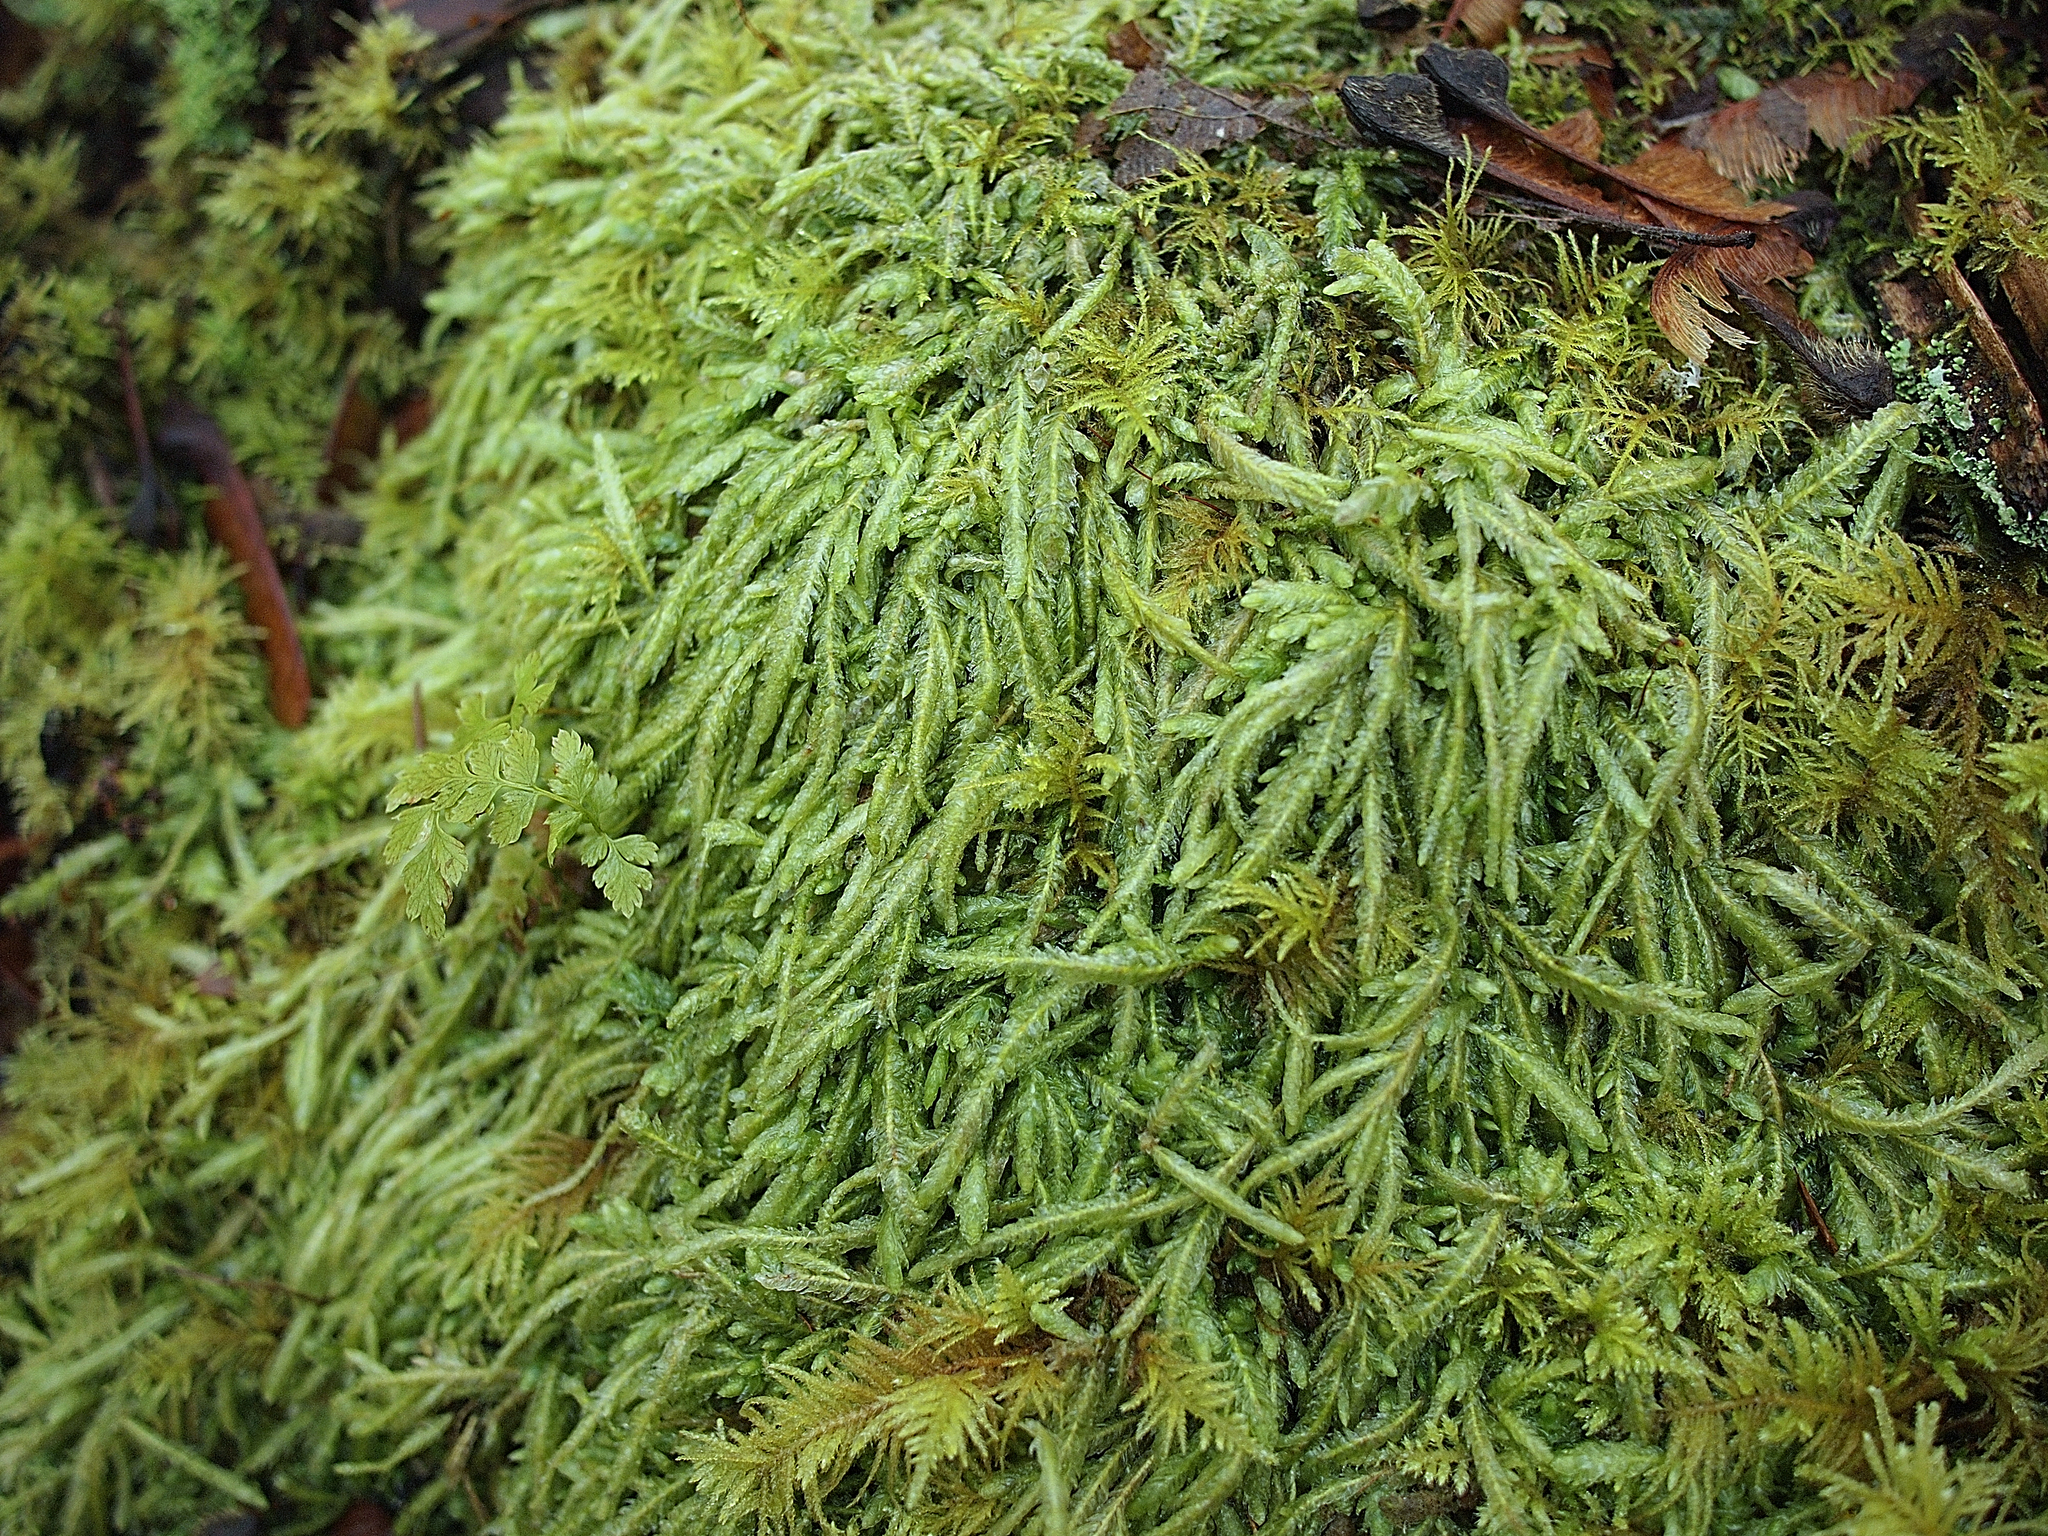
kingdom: Plantae
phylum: Bryophyta
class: Bryopsida
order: Hypnales
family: Plagiotheciaceae
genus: Plagiothecium
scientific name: Plagiothecium undulatum
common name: Waved silk-moss
